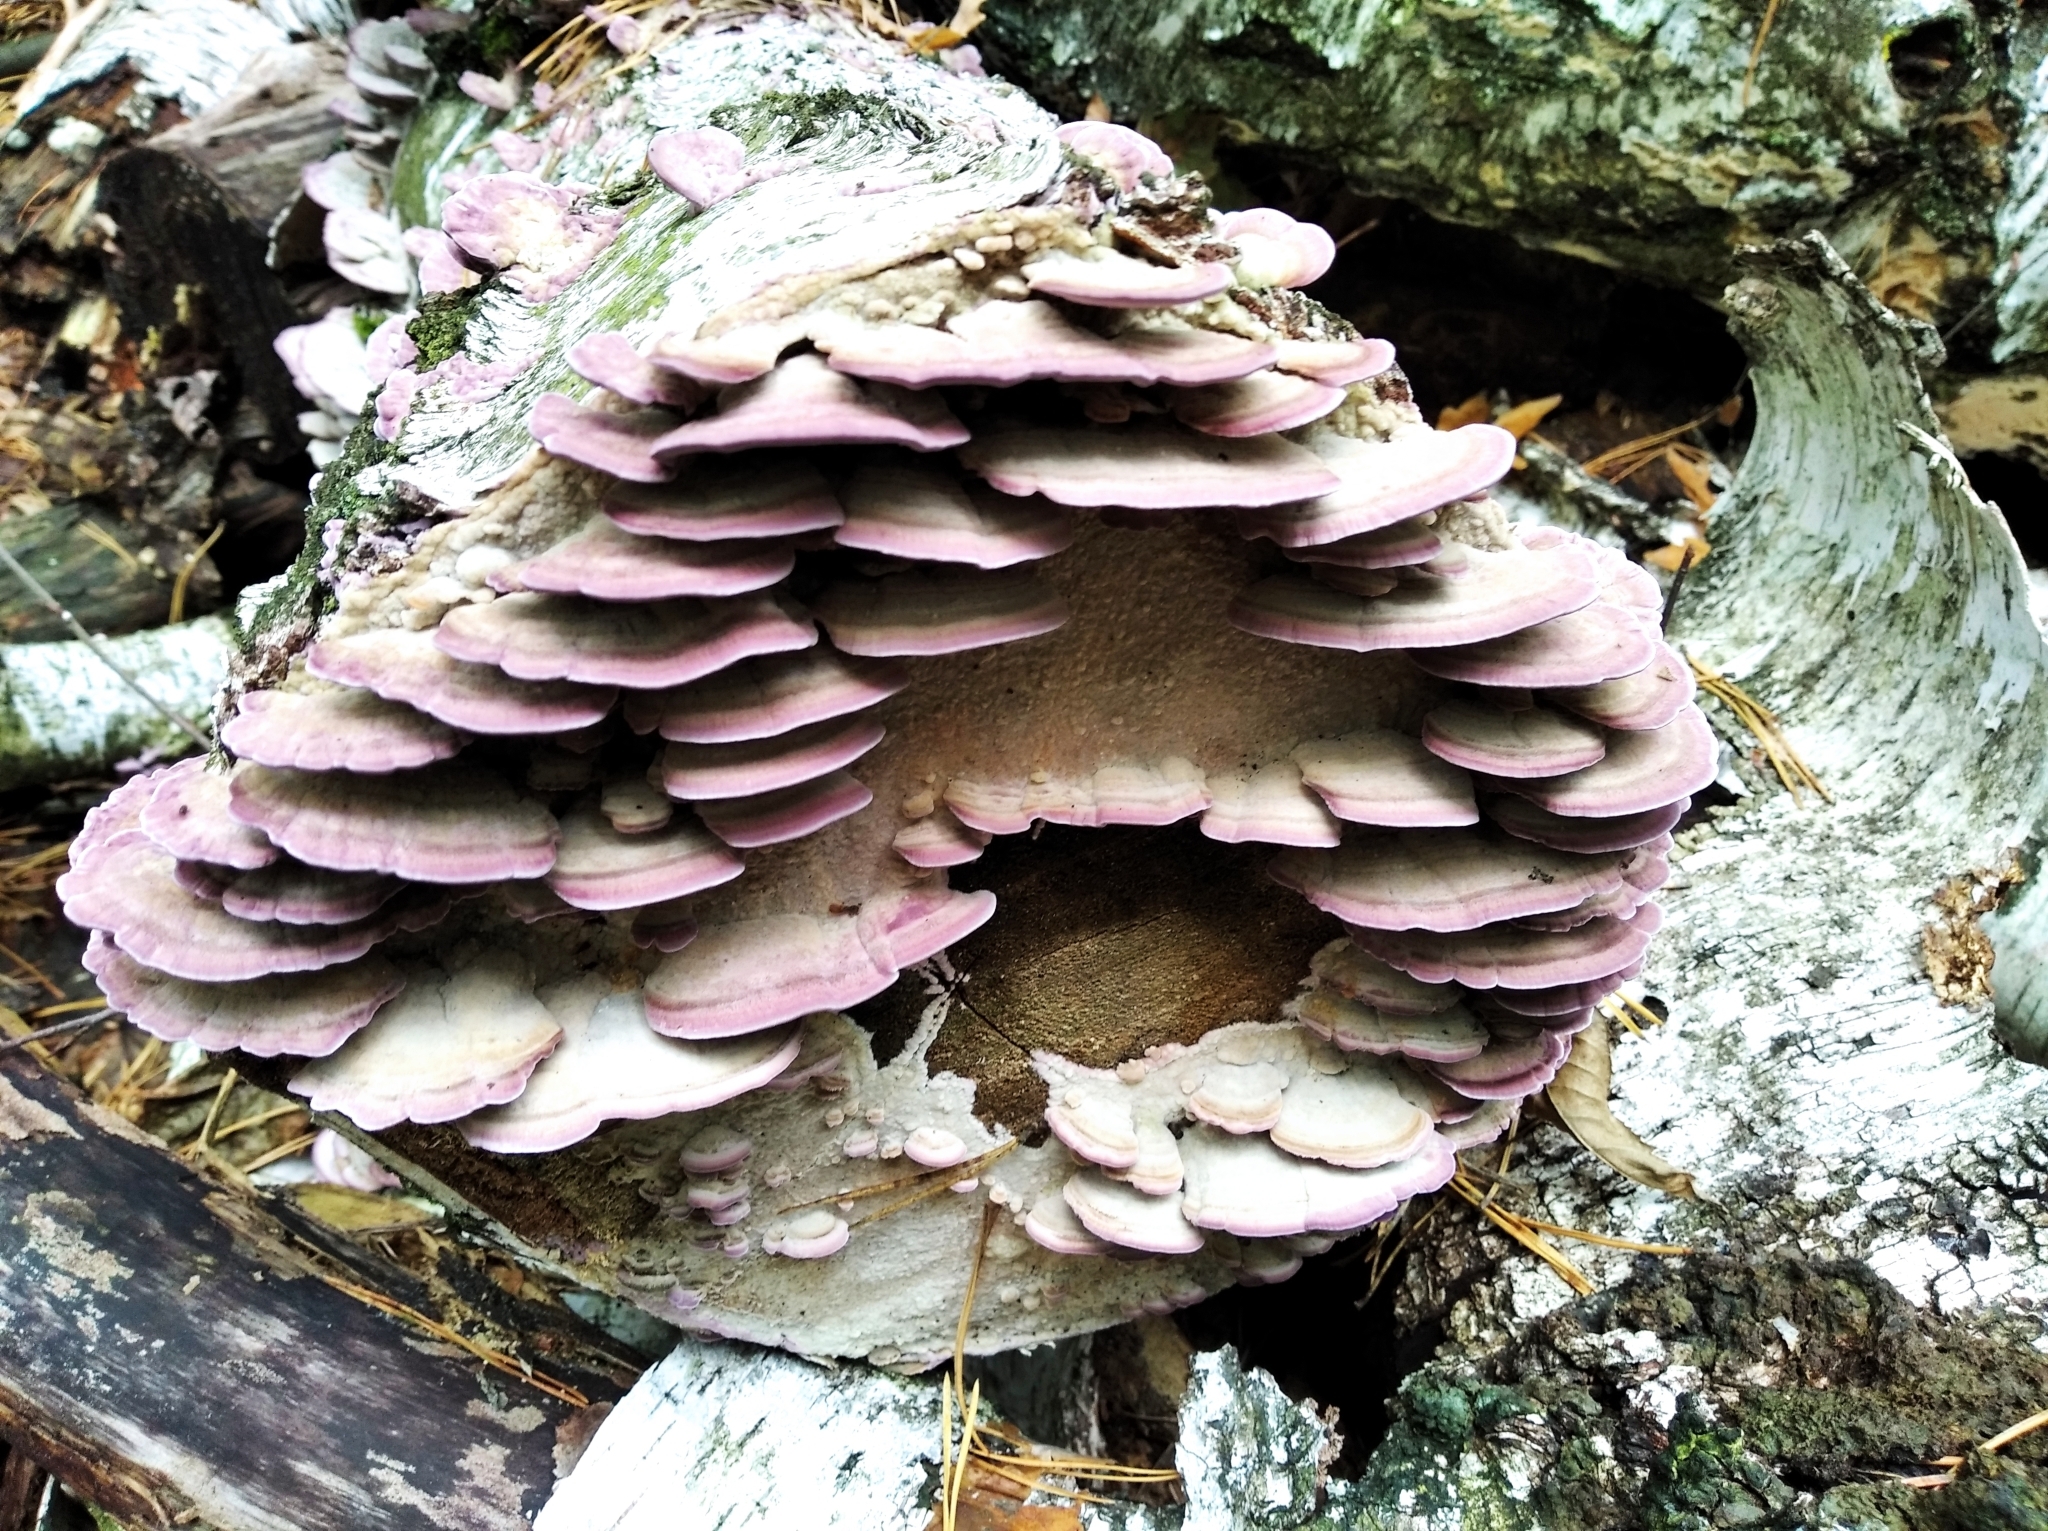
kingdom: Fungi
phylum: Basidiomycota
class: Agaricomycetes
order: Hymenochaetales
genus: Trichaptum
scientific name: Trichaptum biforme
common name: Violet-toothed polypore
